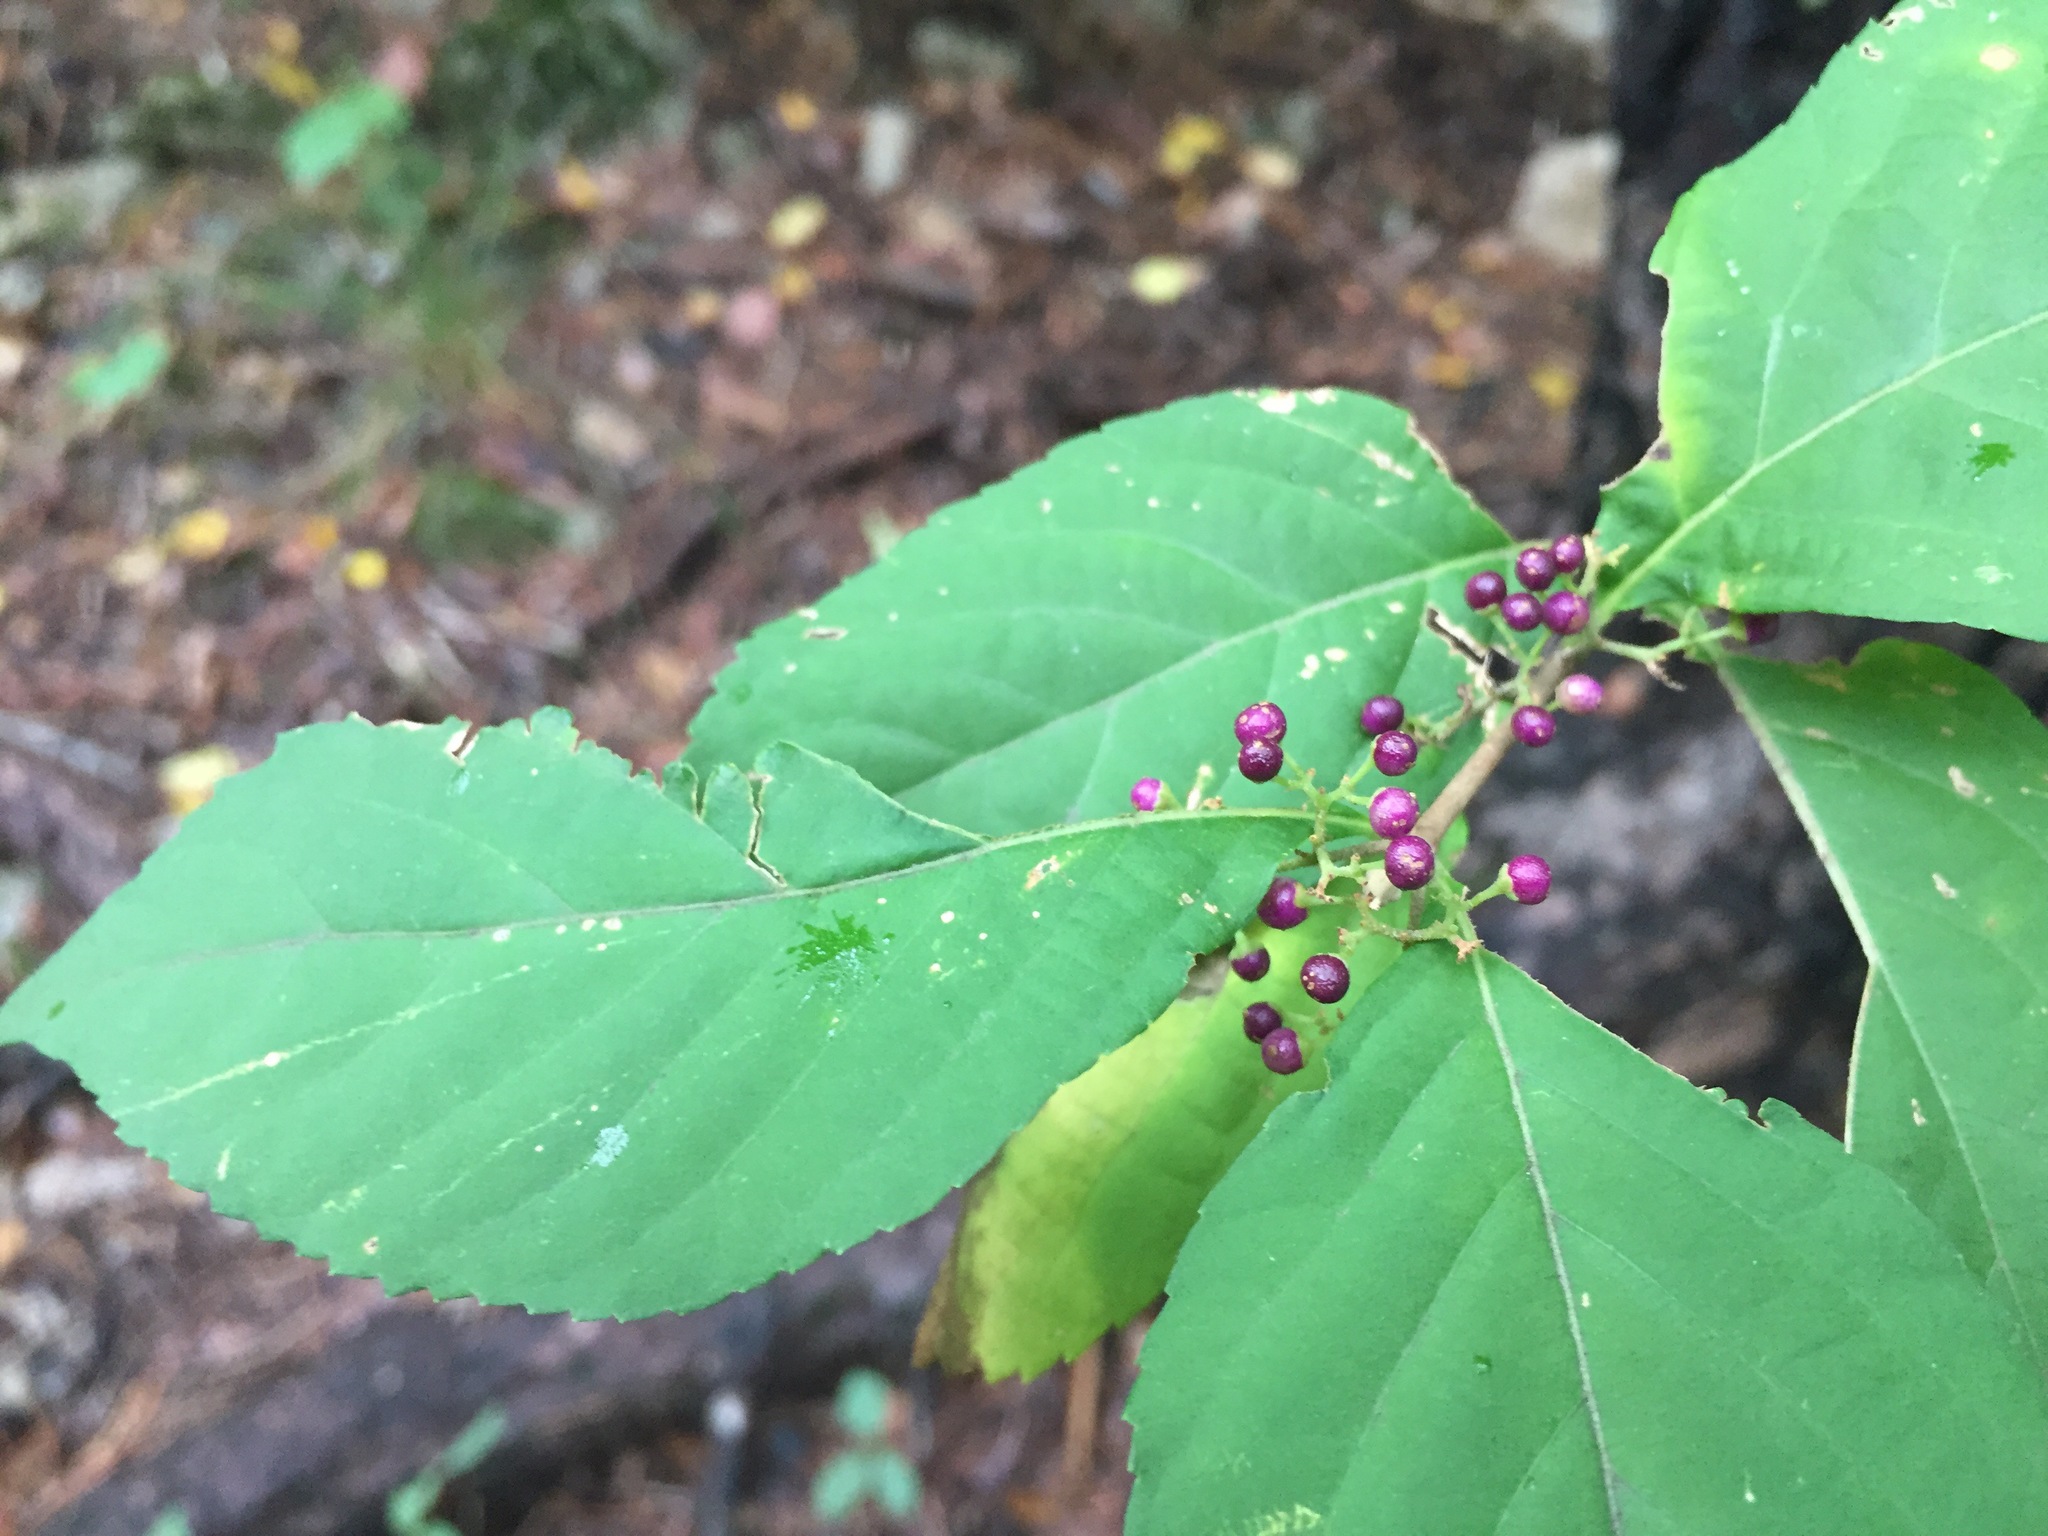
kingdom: Plantae
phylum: Tracheophyta
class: Magnoliopsida
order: Lamiales
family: Lamiaceae
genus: Callicarpa
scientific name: Callicarpa japonica
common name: Japanese beauty-berry
